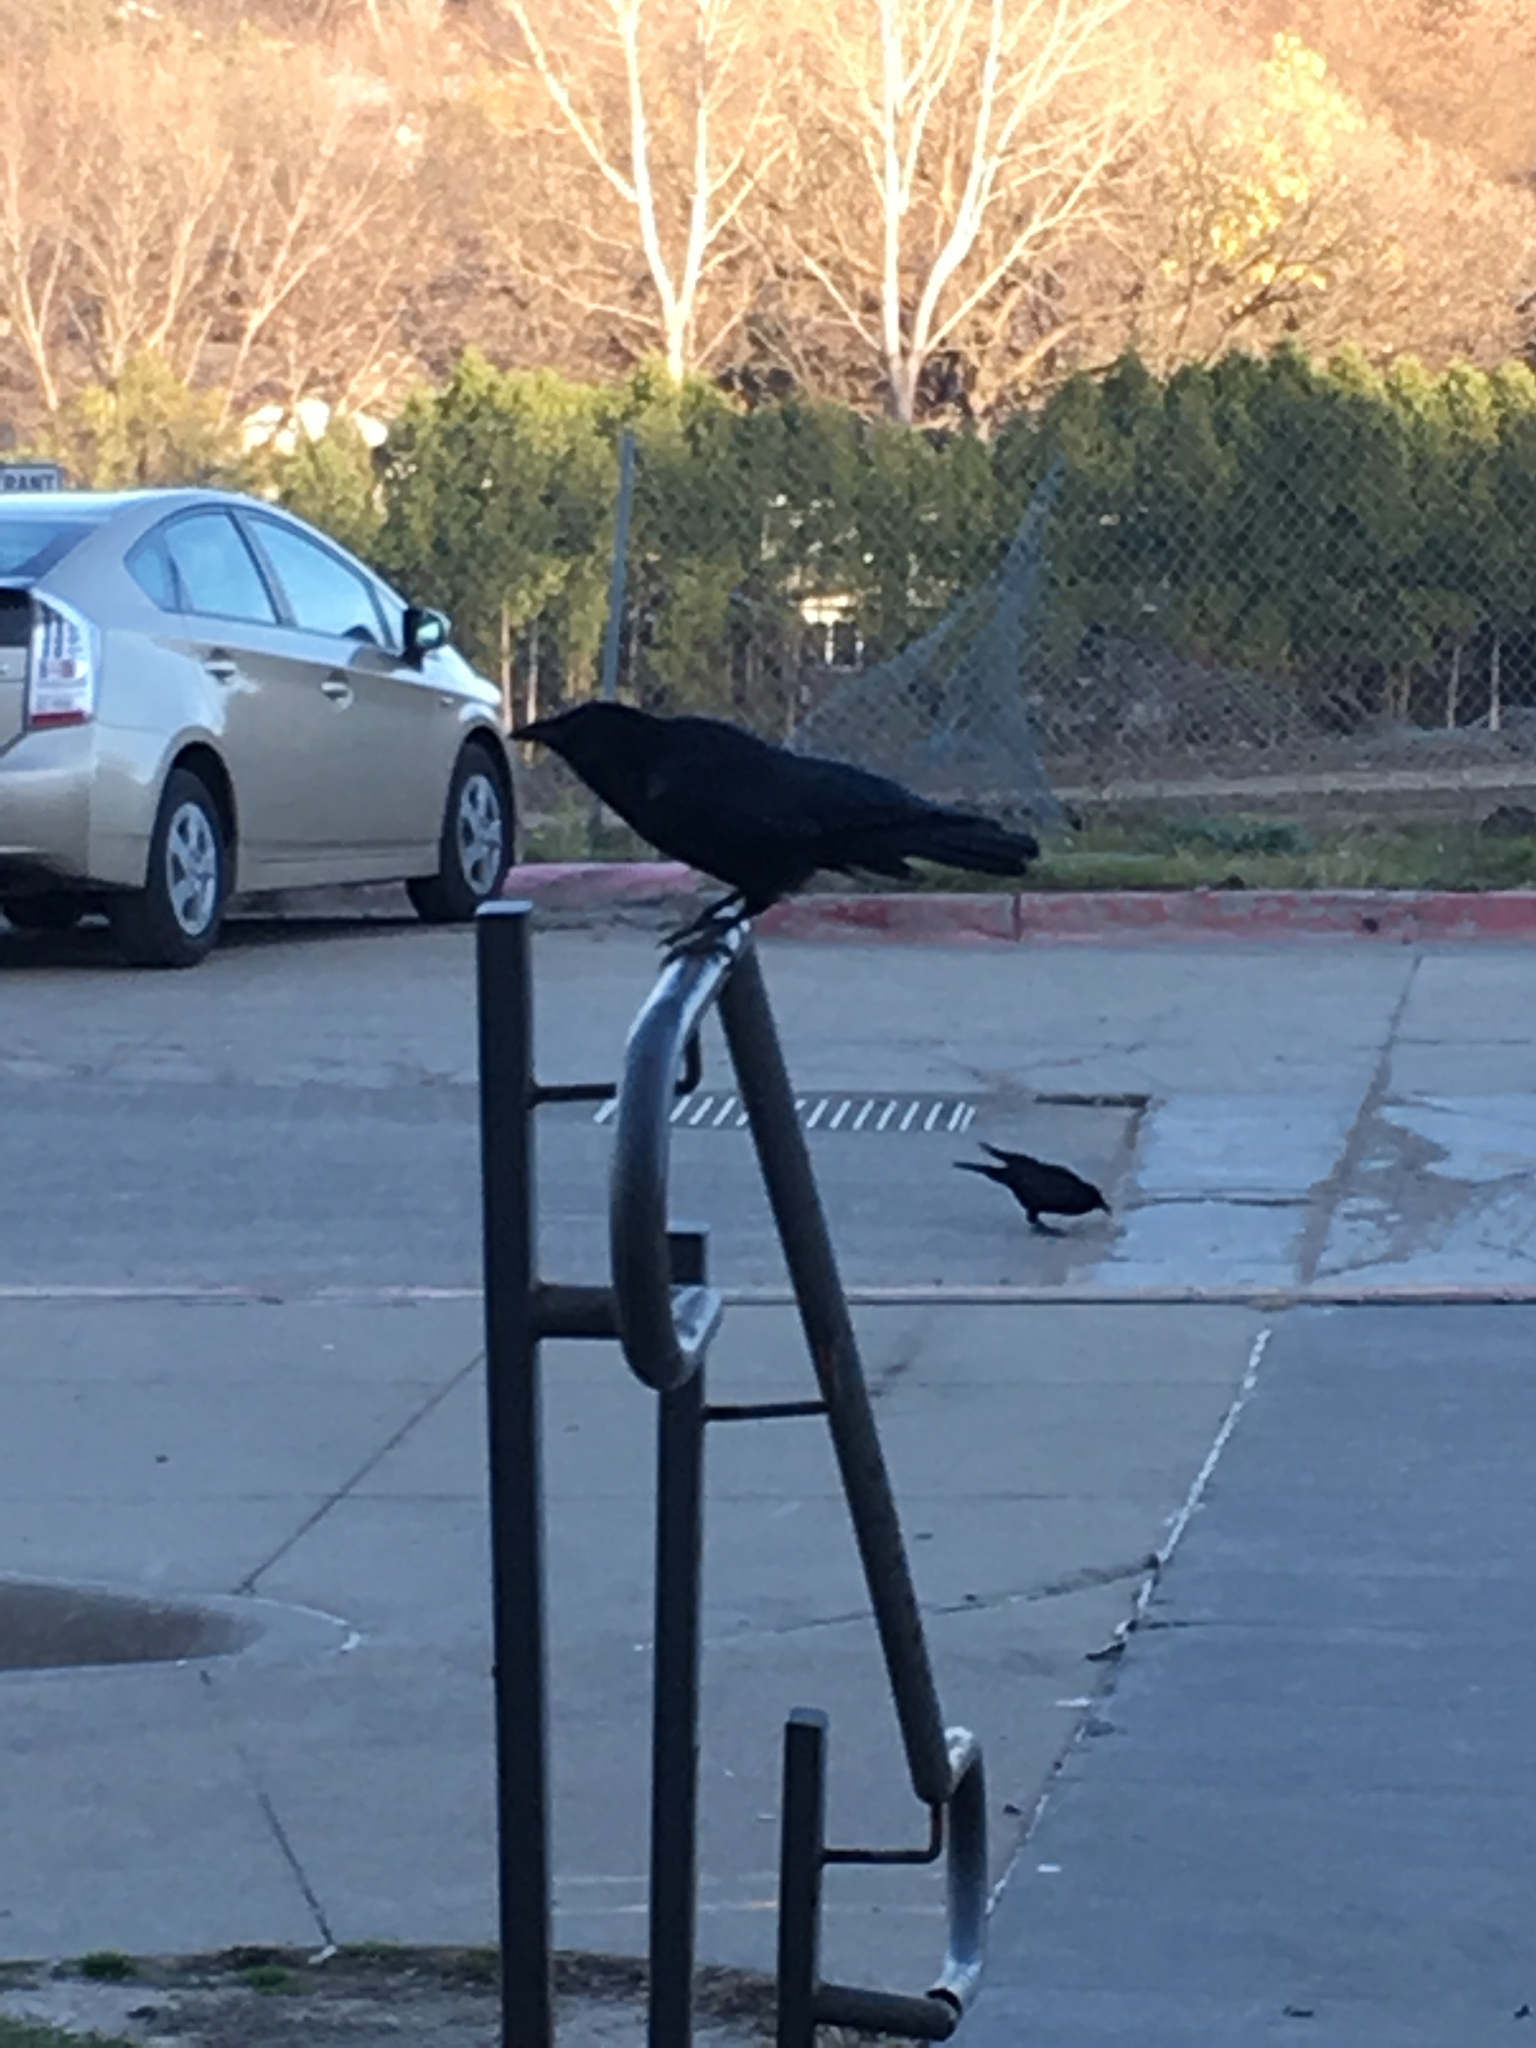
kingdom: Animalia
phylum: Chordata
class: Aves
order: Passeriformes
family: Corvidae
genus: Corvus
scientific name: Corvus brachyrhynchos
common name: American crow
